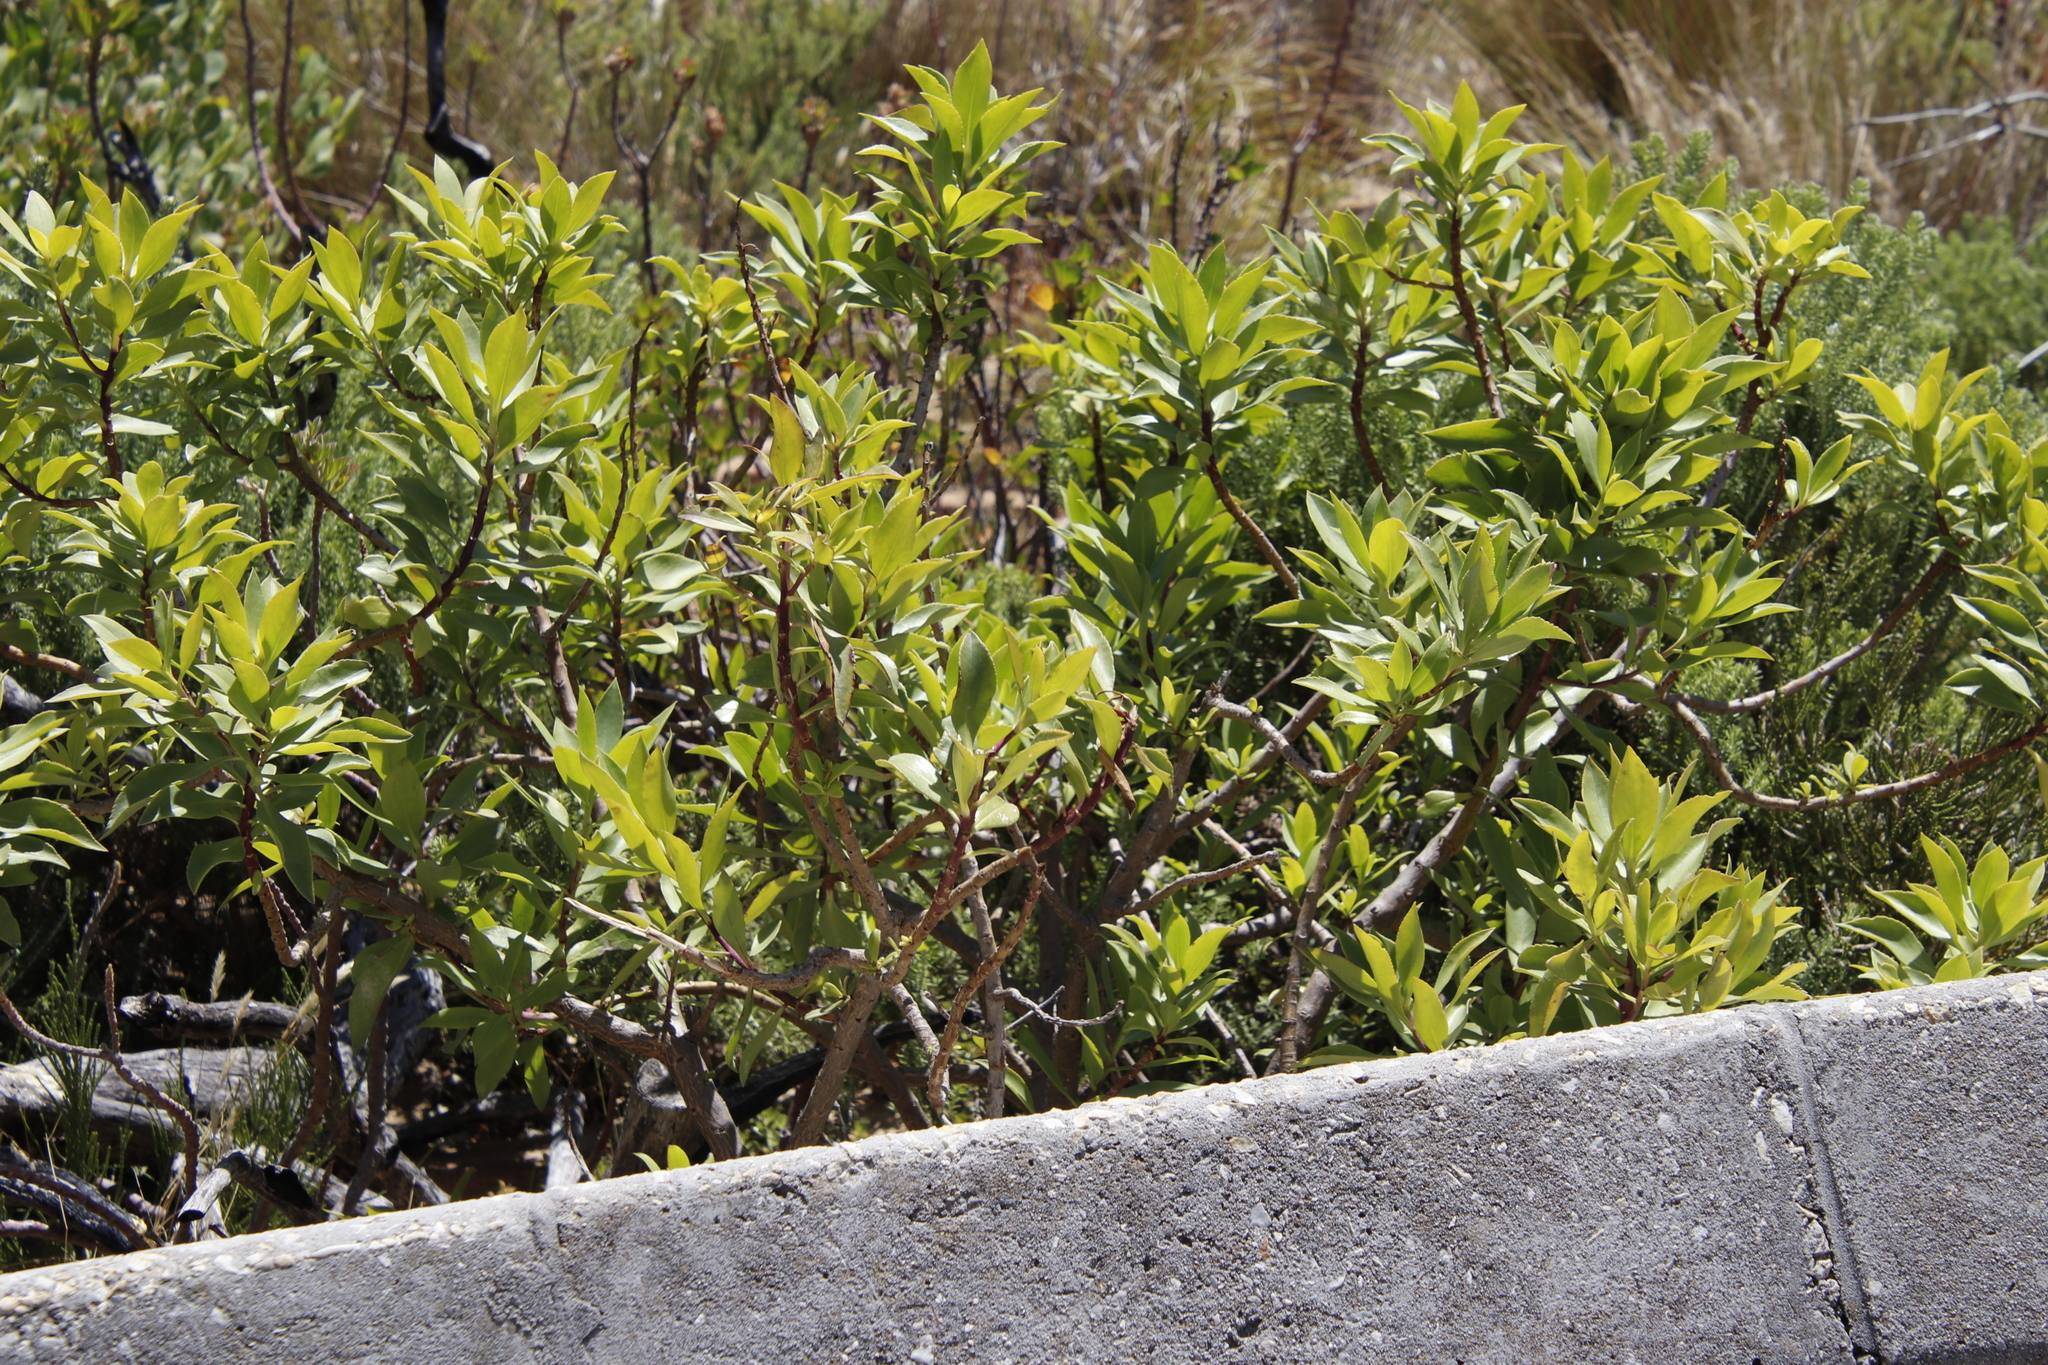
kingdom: Plantae
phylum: Tracheophyta
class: Magnoliopsida
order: Lamiales
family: Scrophulariaceae
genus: Myoporum
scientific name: Myoporum insulare
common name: Common boobialla
